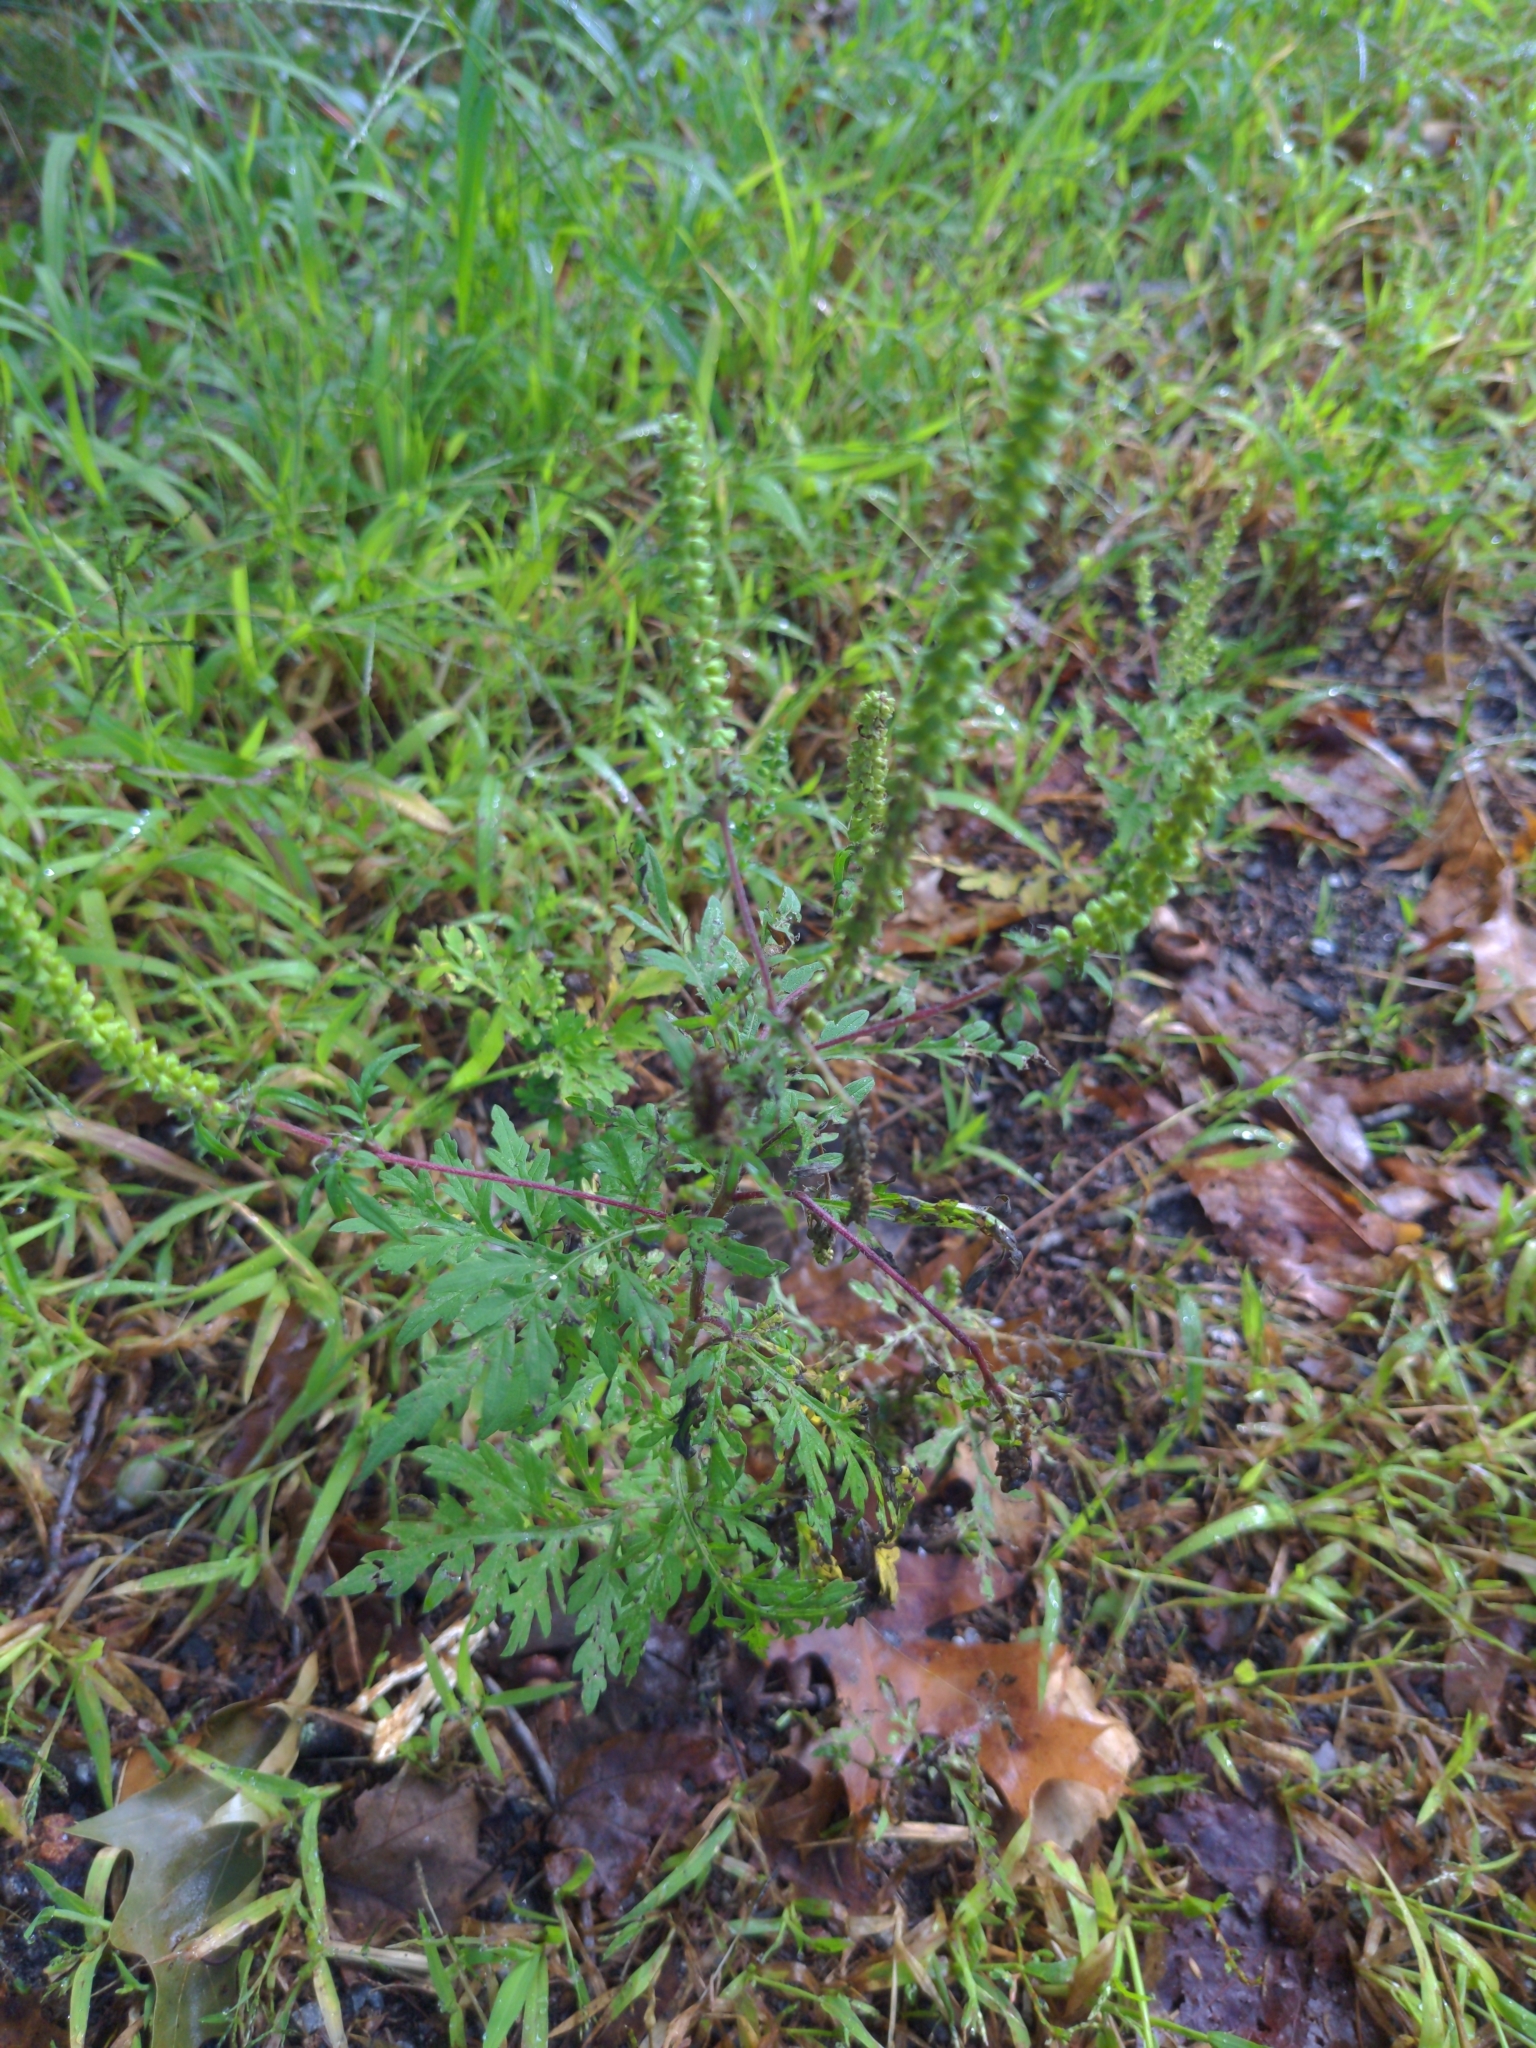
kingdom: Plantae
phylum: Tracheophyta
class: Magnoliopsida
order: Asterales
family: Asteraceae
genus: Ambrosia
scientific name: Ambrosia artemisiifolia
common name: Annual ragweed
